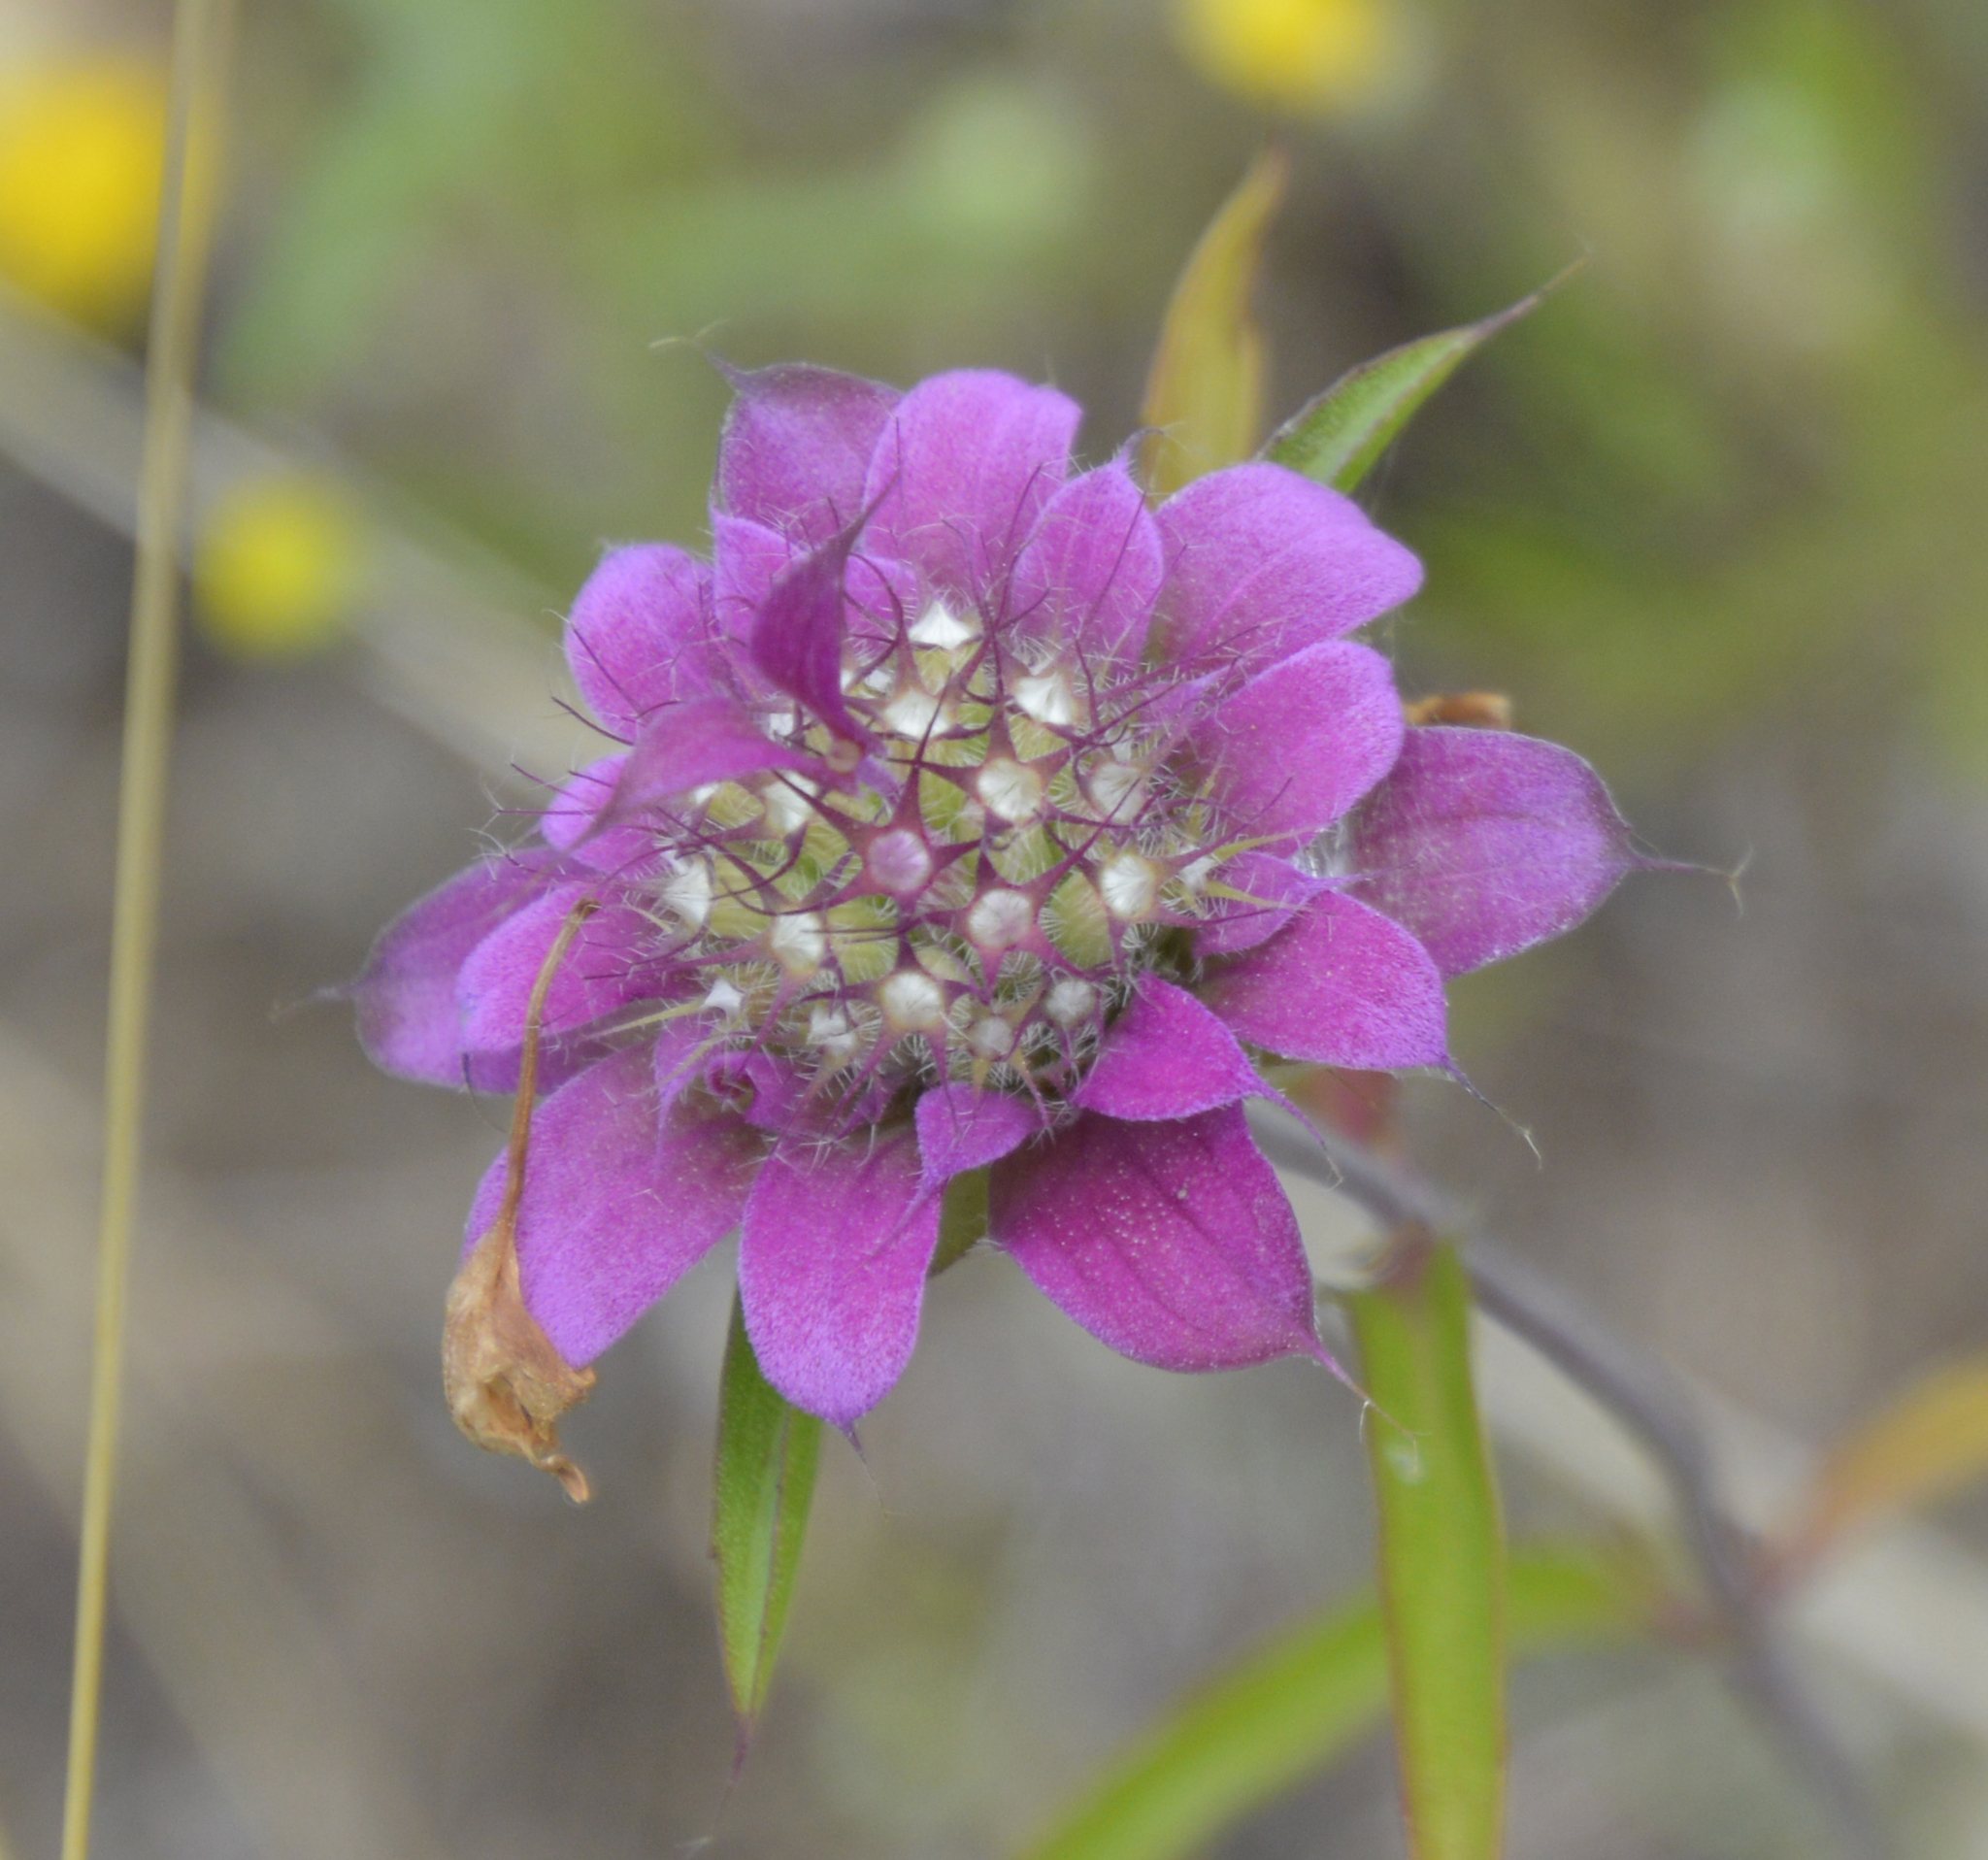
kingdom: Plantae
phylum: Tracheophyta
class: Magnoliopsida
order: Lamiales
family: Lamiaceae
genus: Monarda
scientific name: Monarda citriodora
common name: Lemon beebalm
